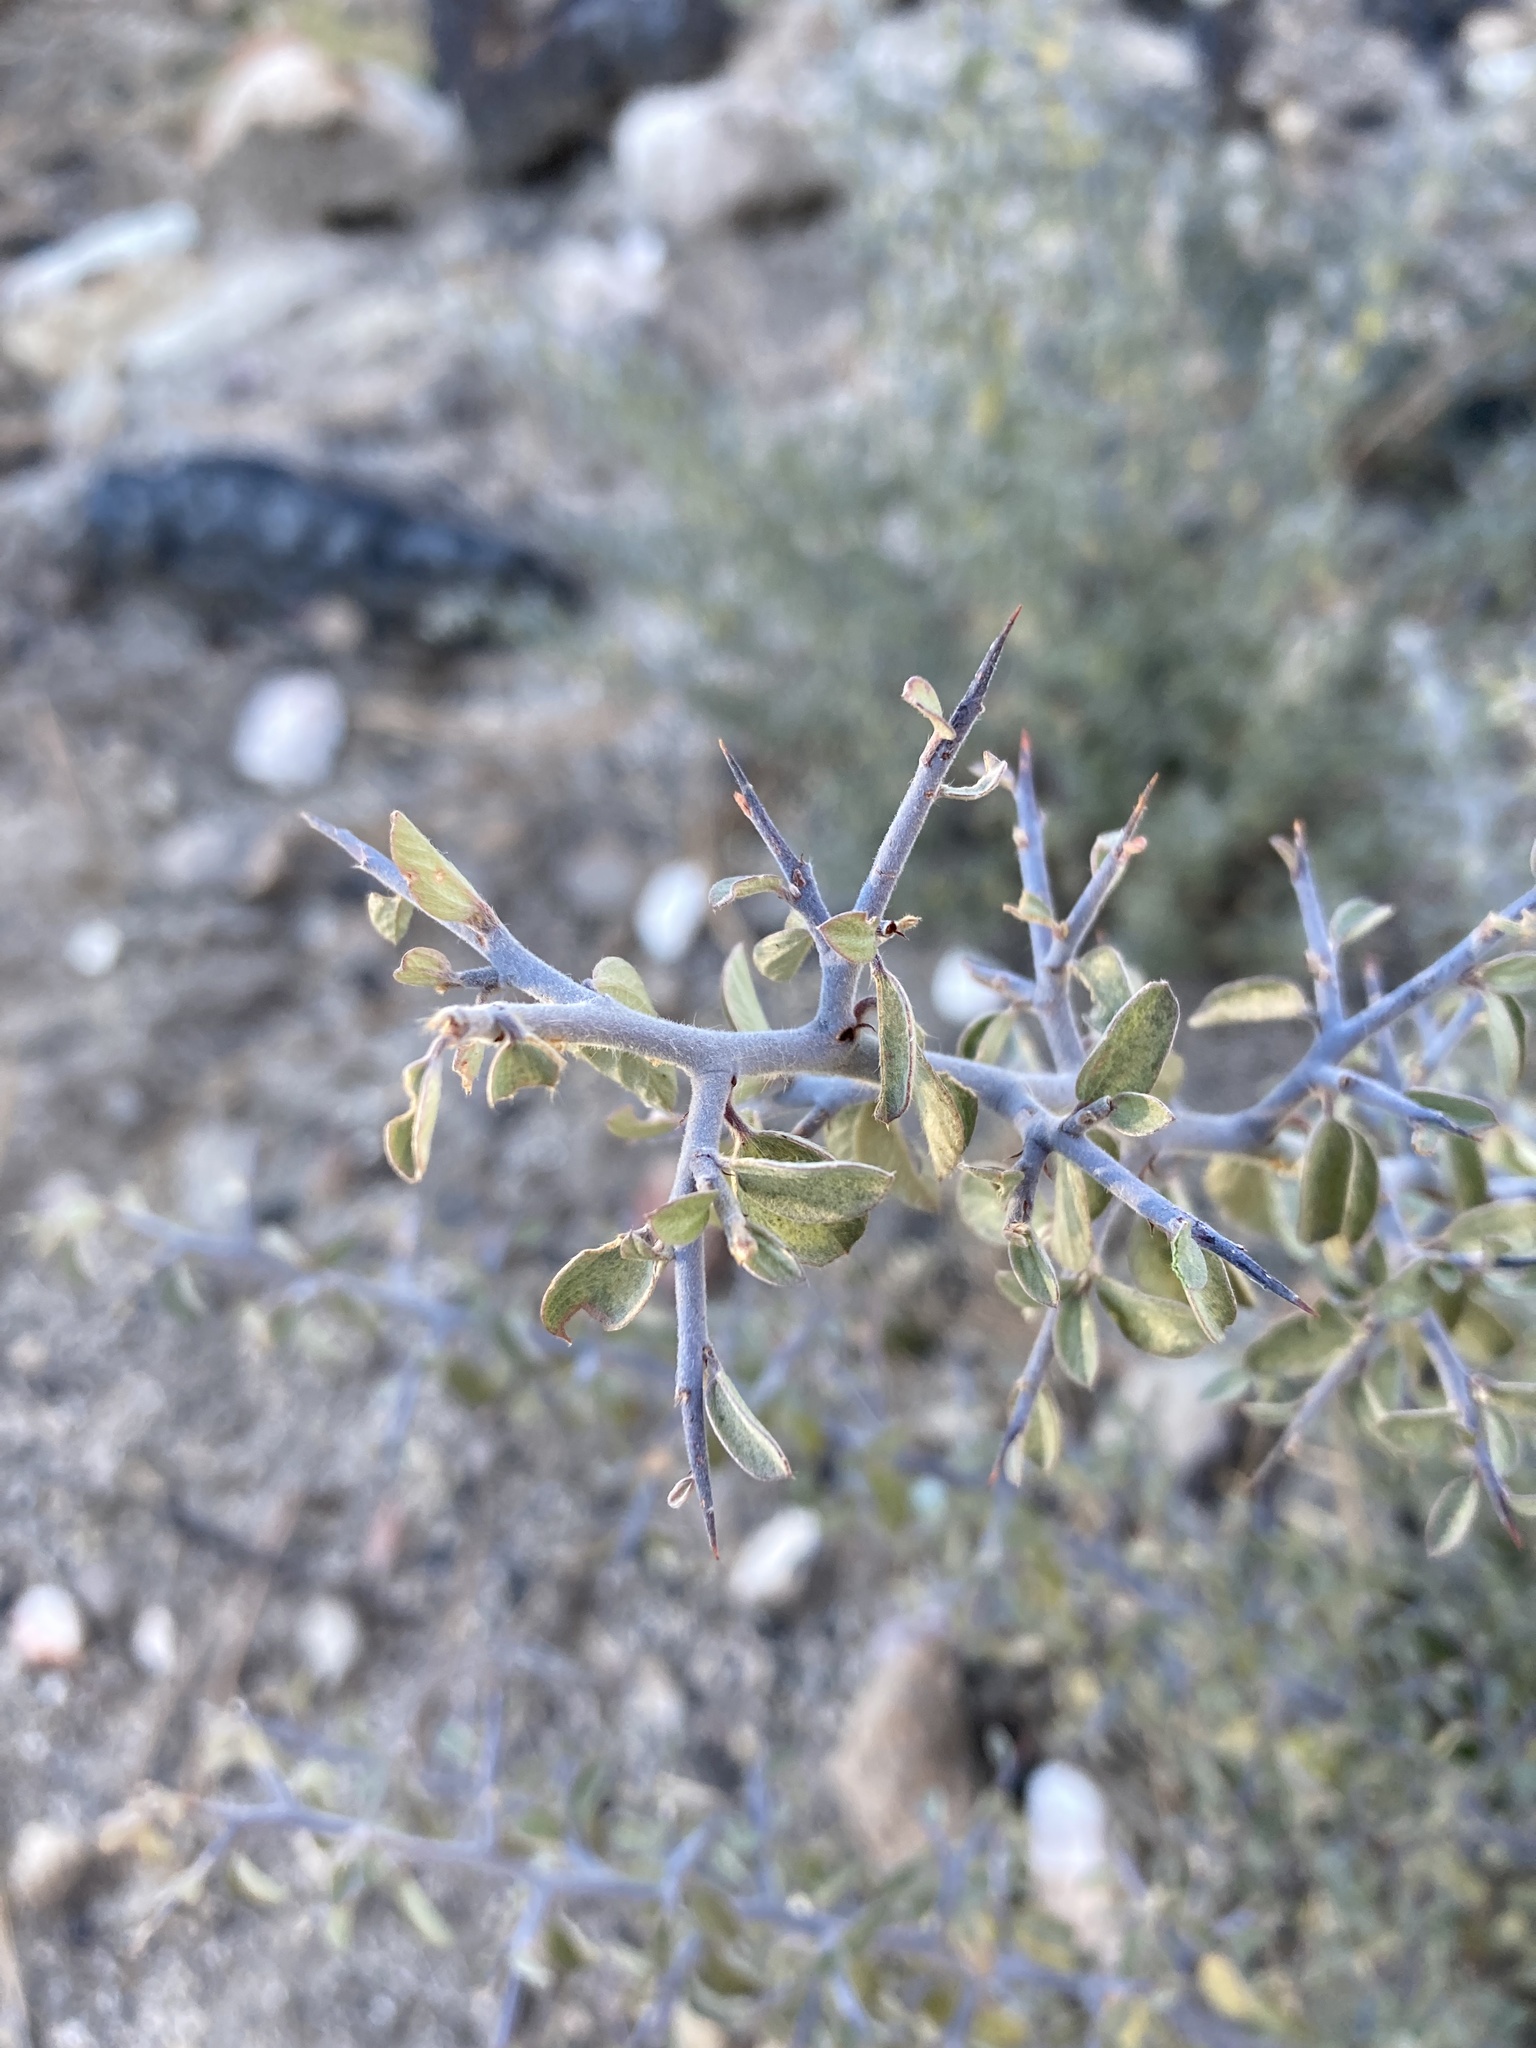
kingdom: Plantae
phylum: Tracheophyta
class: Magnoliopsida
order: Rosales
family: Rhamnaceae
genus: Ceanothus
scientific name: Ceanothus fendleri
